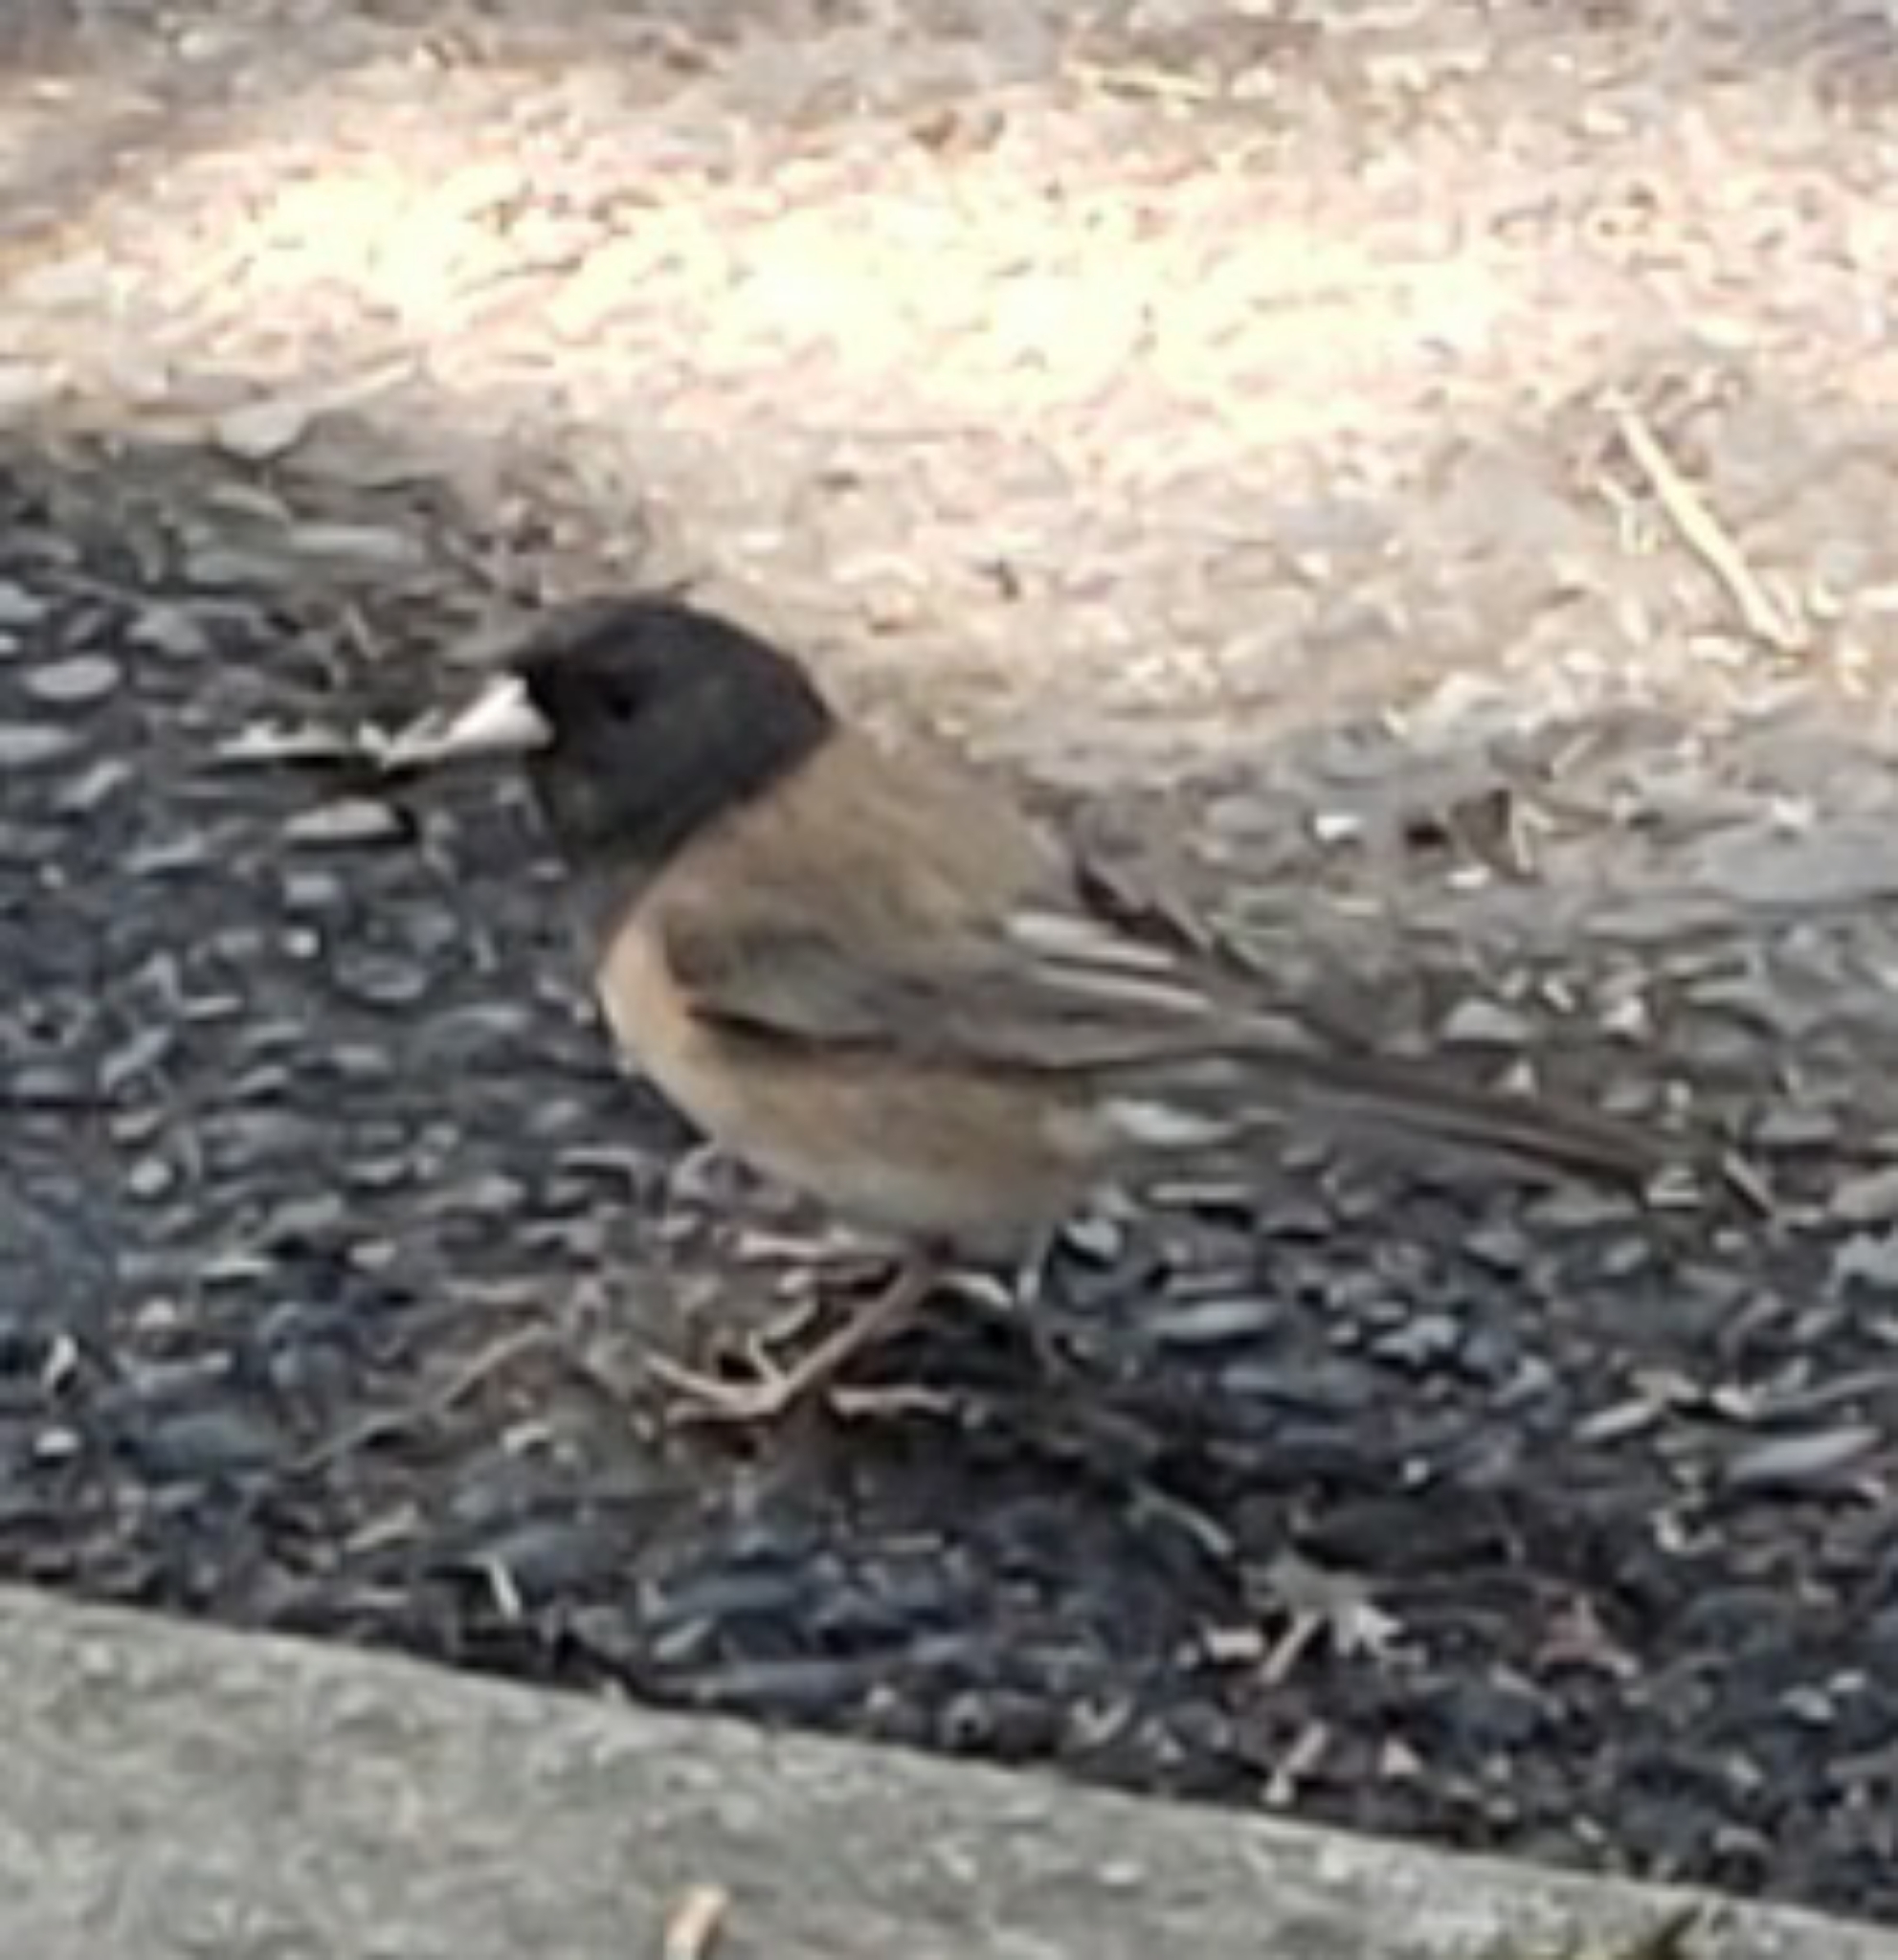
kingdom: Animalia
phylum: Chordata
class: Aves
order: Passeriformes
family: Passerellidae
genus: Junco
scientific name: Junco hyemalis
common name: Dark-eyed junco
